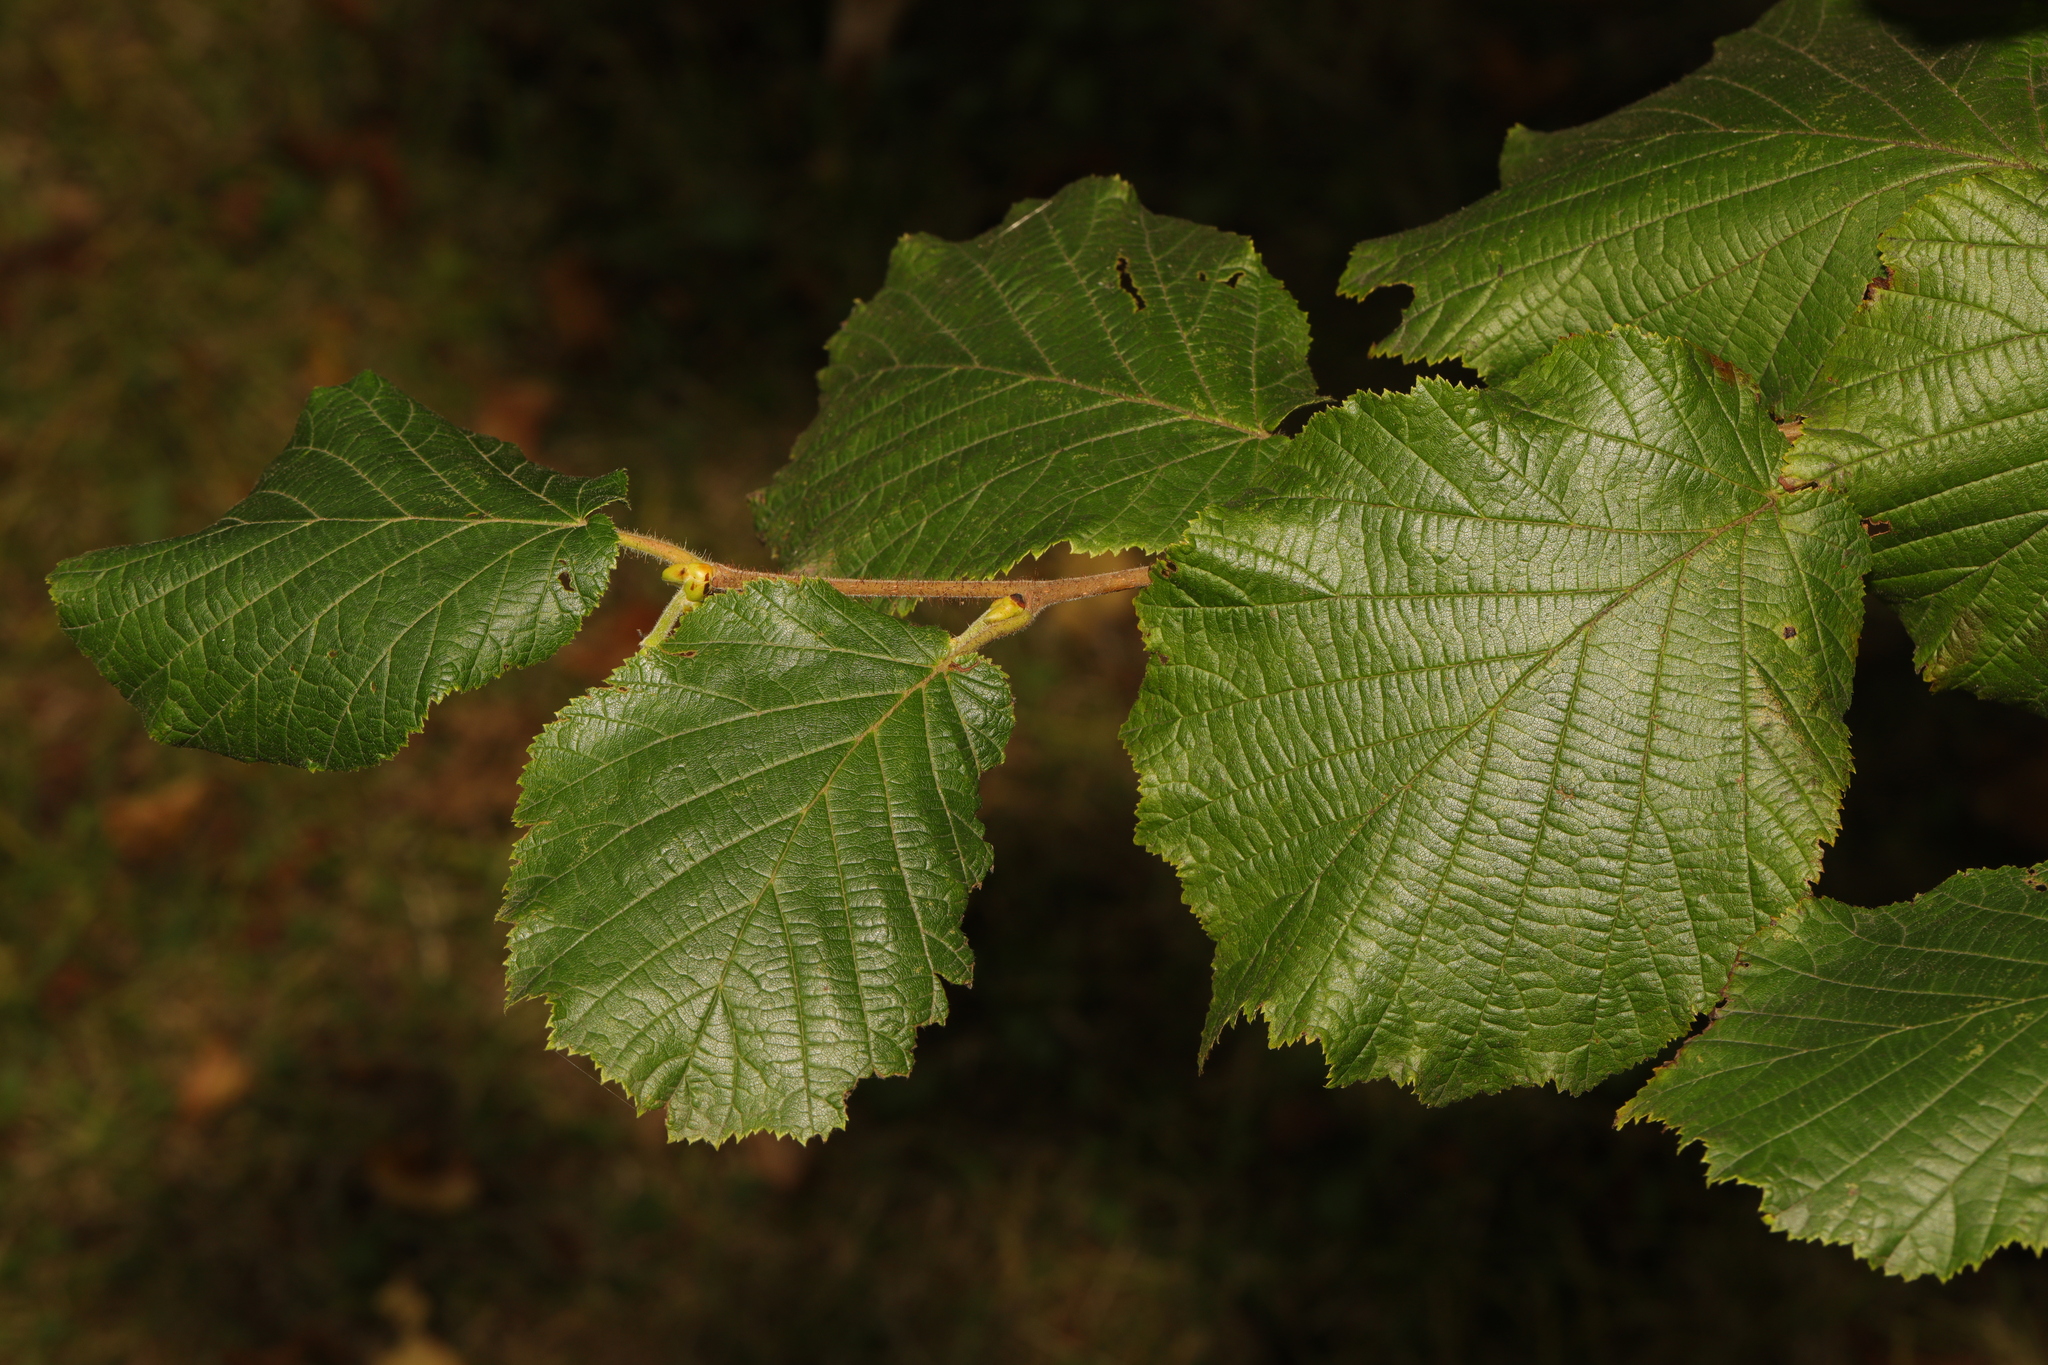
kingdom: Plantae
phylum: Tracheophyta
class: Magnoliopsida
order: Fagales
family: Betulaceae
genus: Corylus
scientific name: Corylus avellana
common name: European hazel
